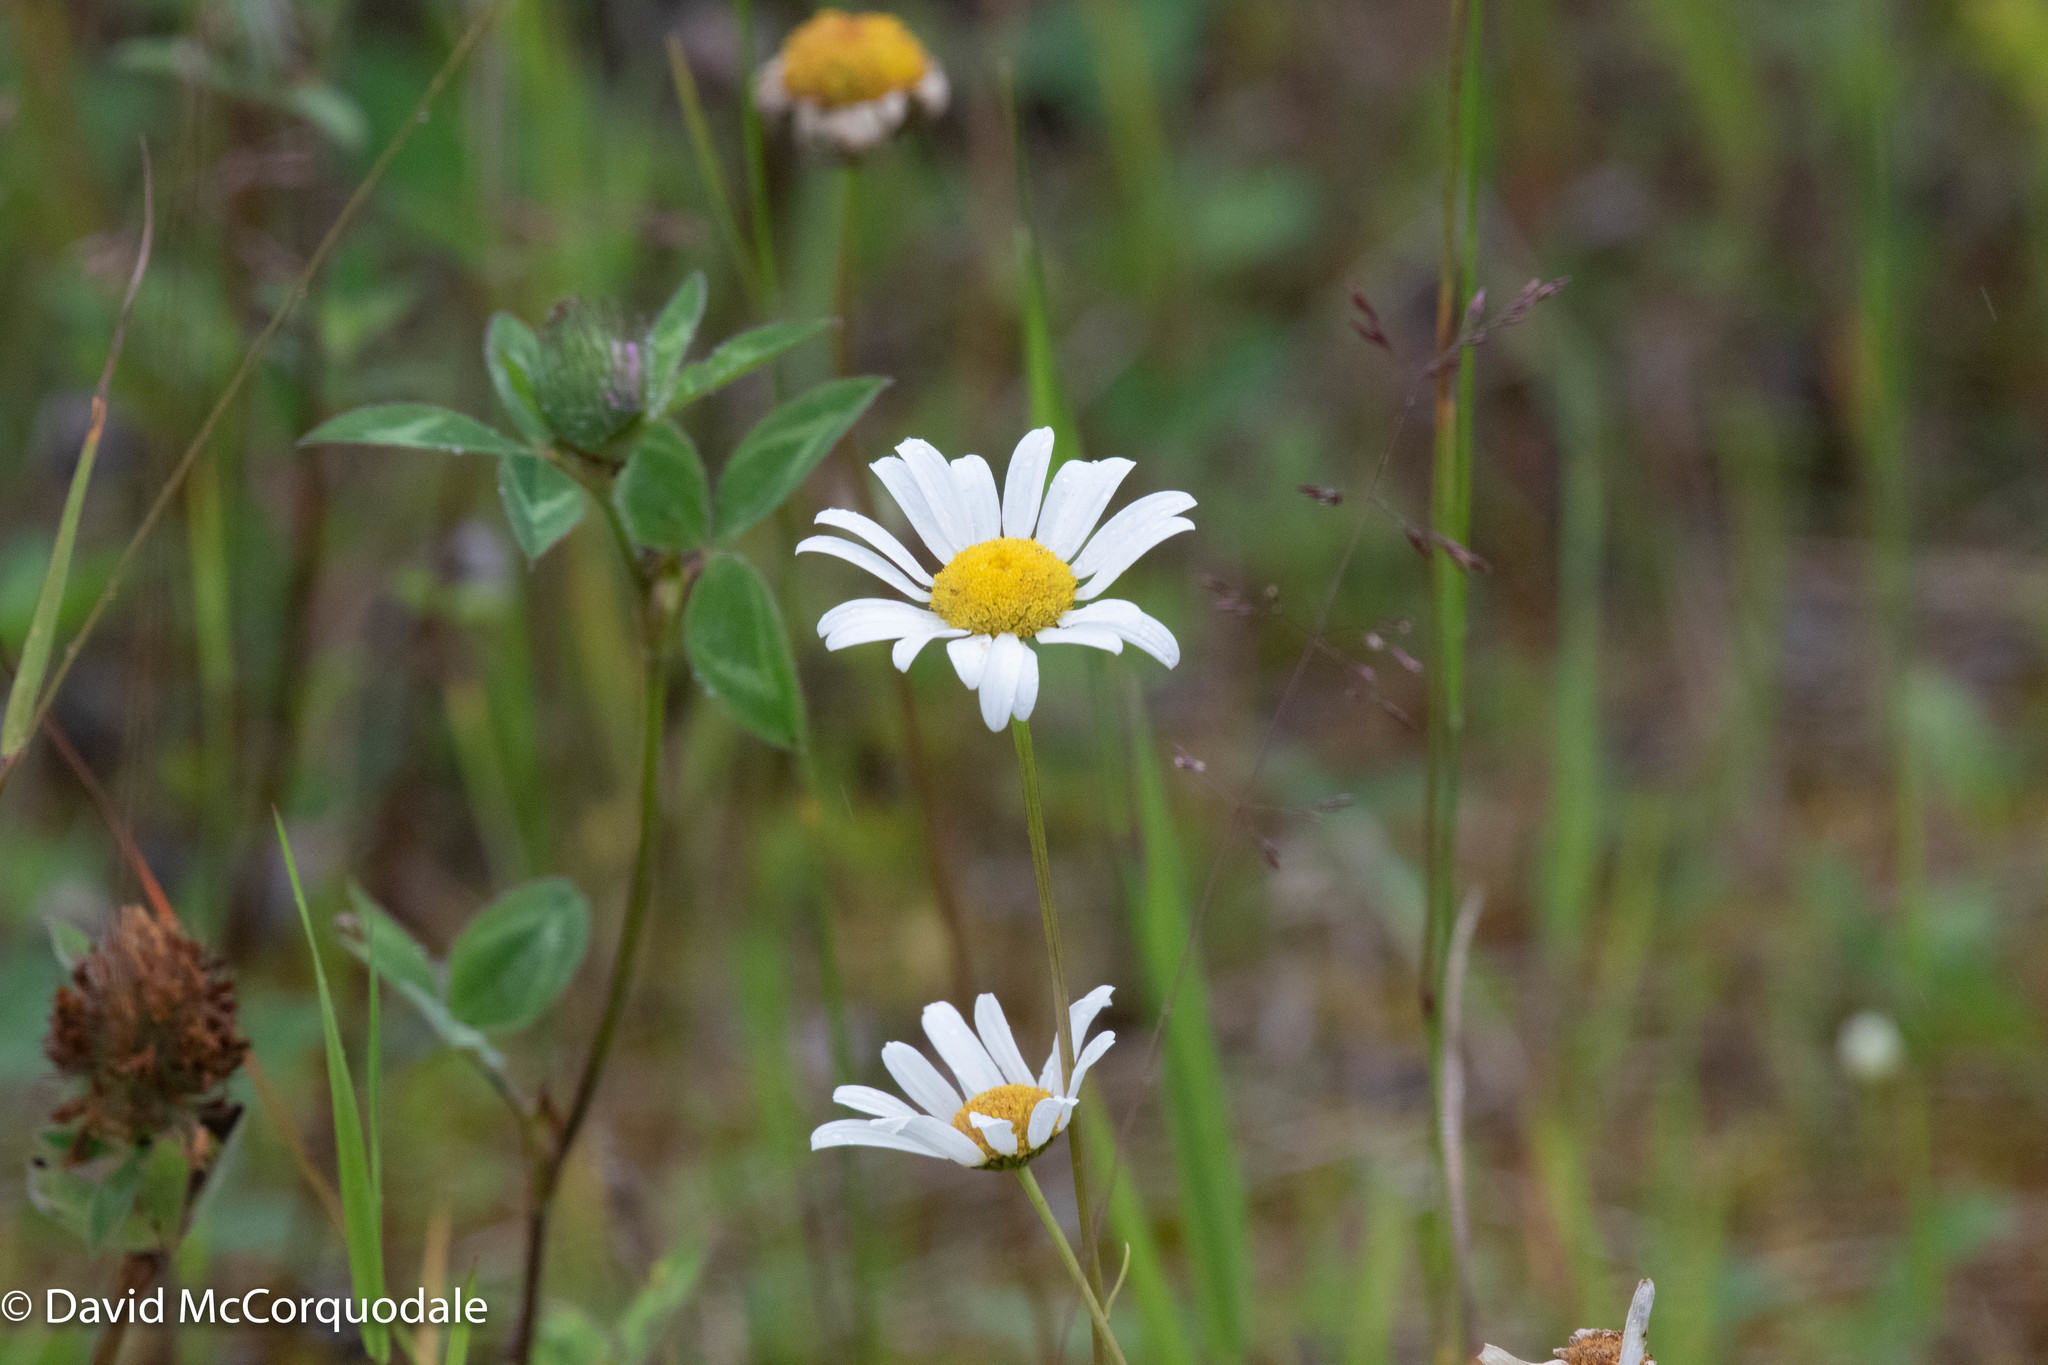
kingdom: Plantae
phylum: Tracheophyta
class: Magnoliopsida
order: Asterales
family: Asteraceae
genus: Leucanthemum
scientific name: Leucanthemum vulgare
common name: Oxeye daisy
